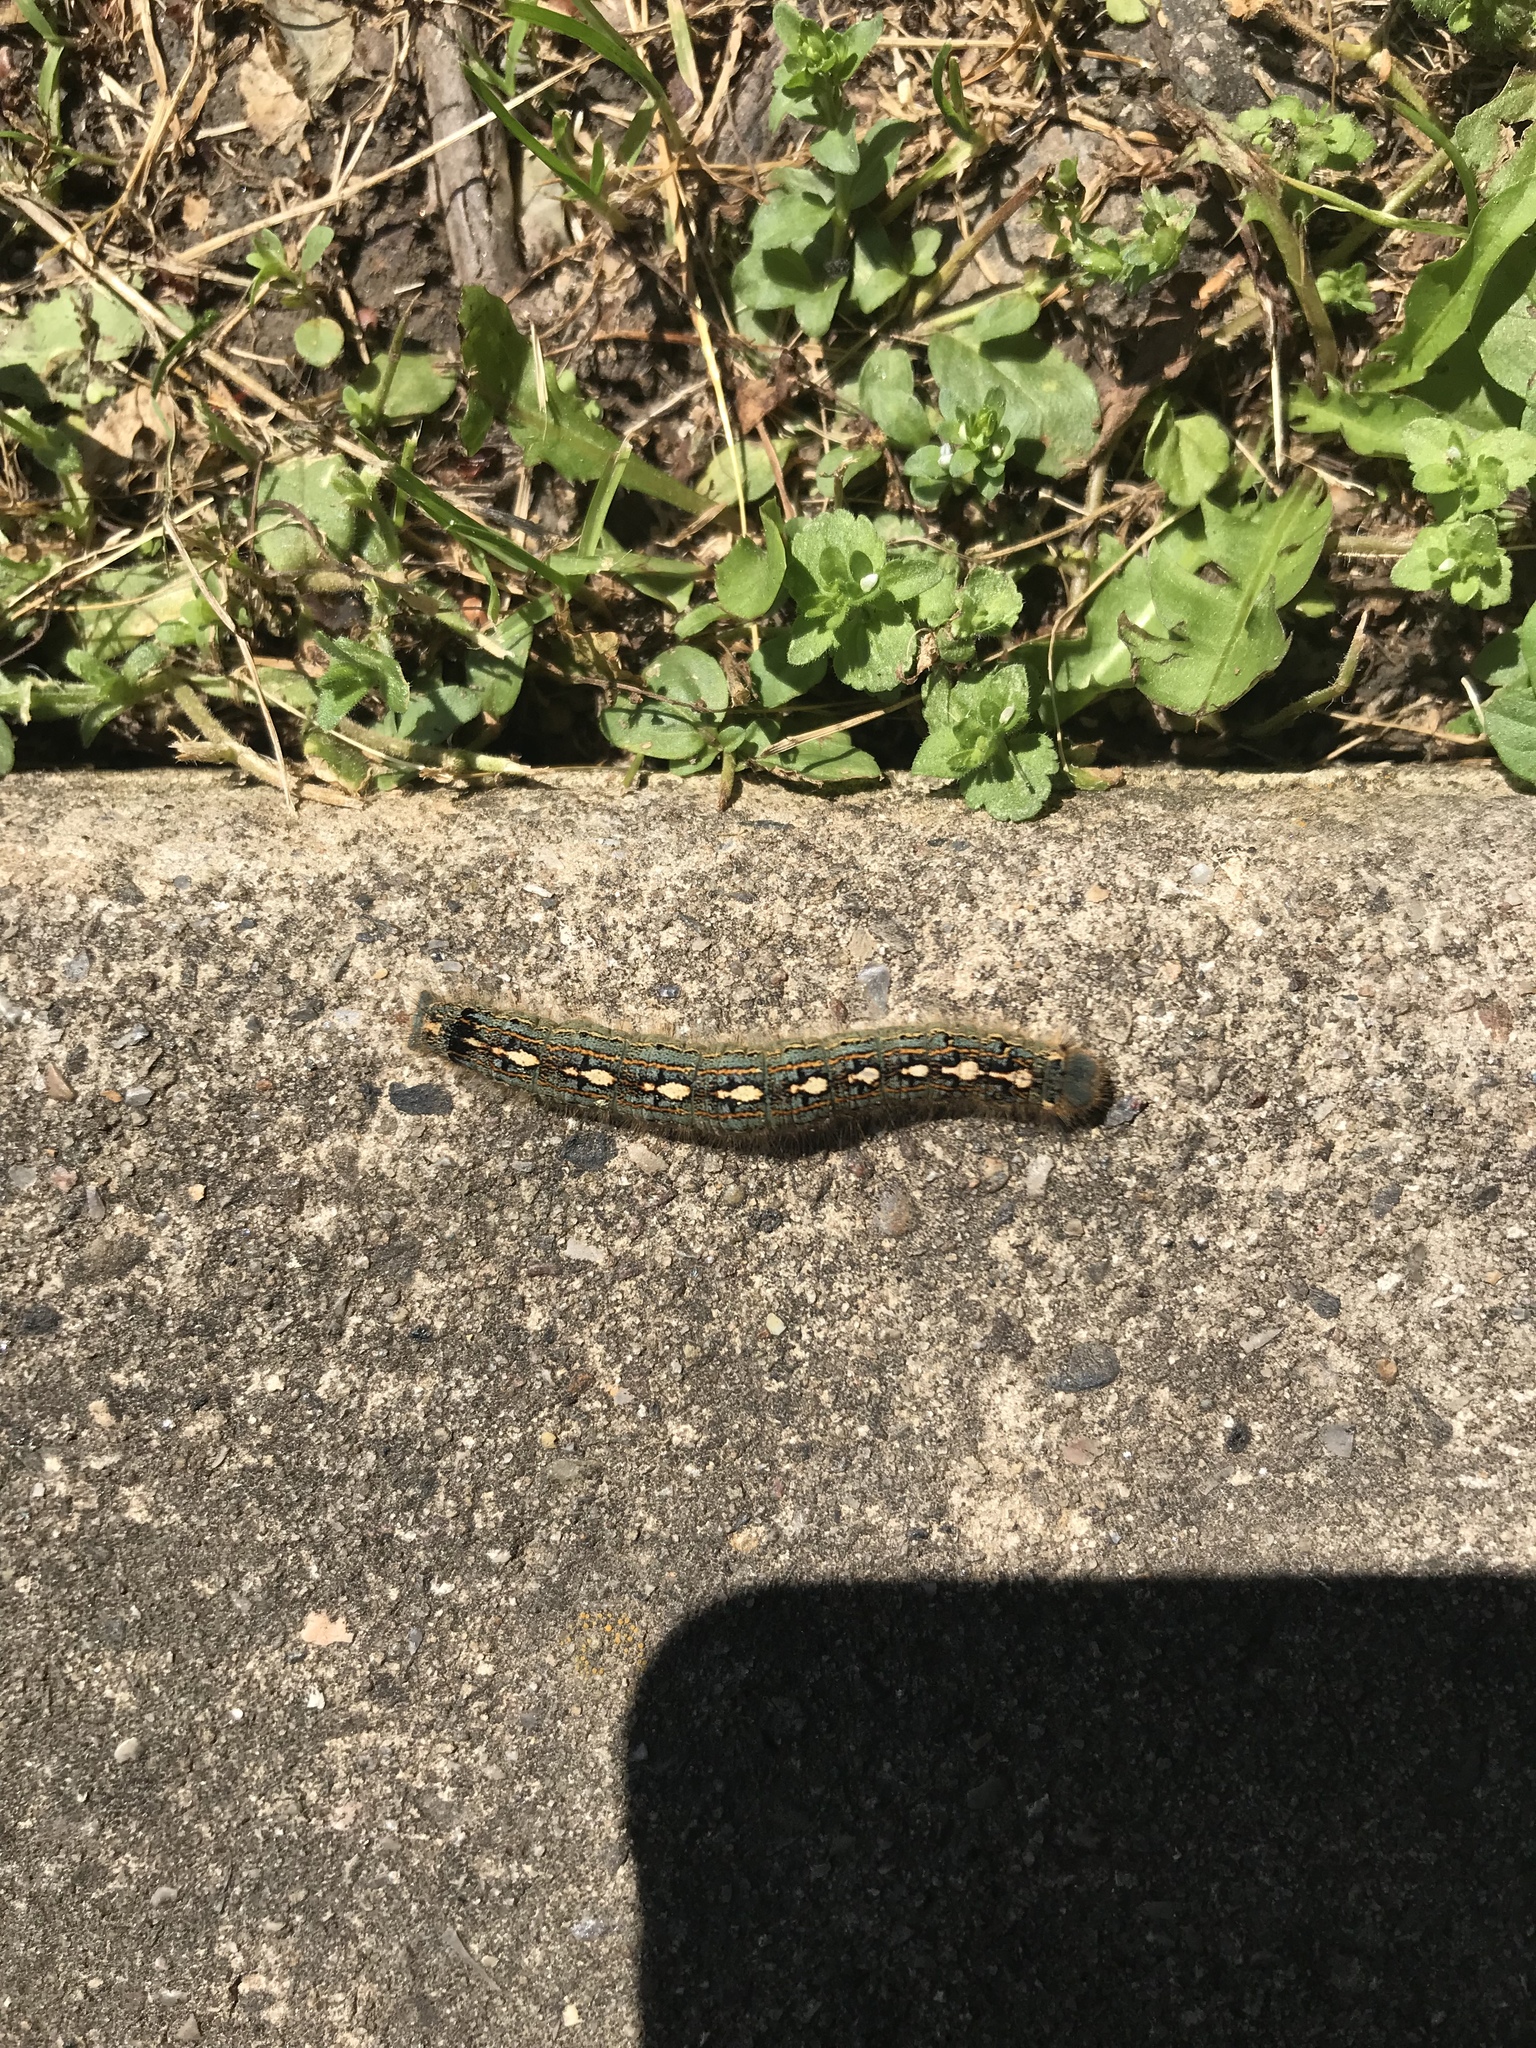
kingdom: Animalia
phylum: Arthropoda
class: Insecta
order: Lepidoptera
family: Lasiocampidae
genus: Malacosoma
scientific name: Malacosoma disstria
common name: Forest tent caterpillar
